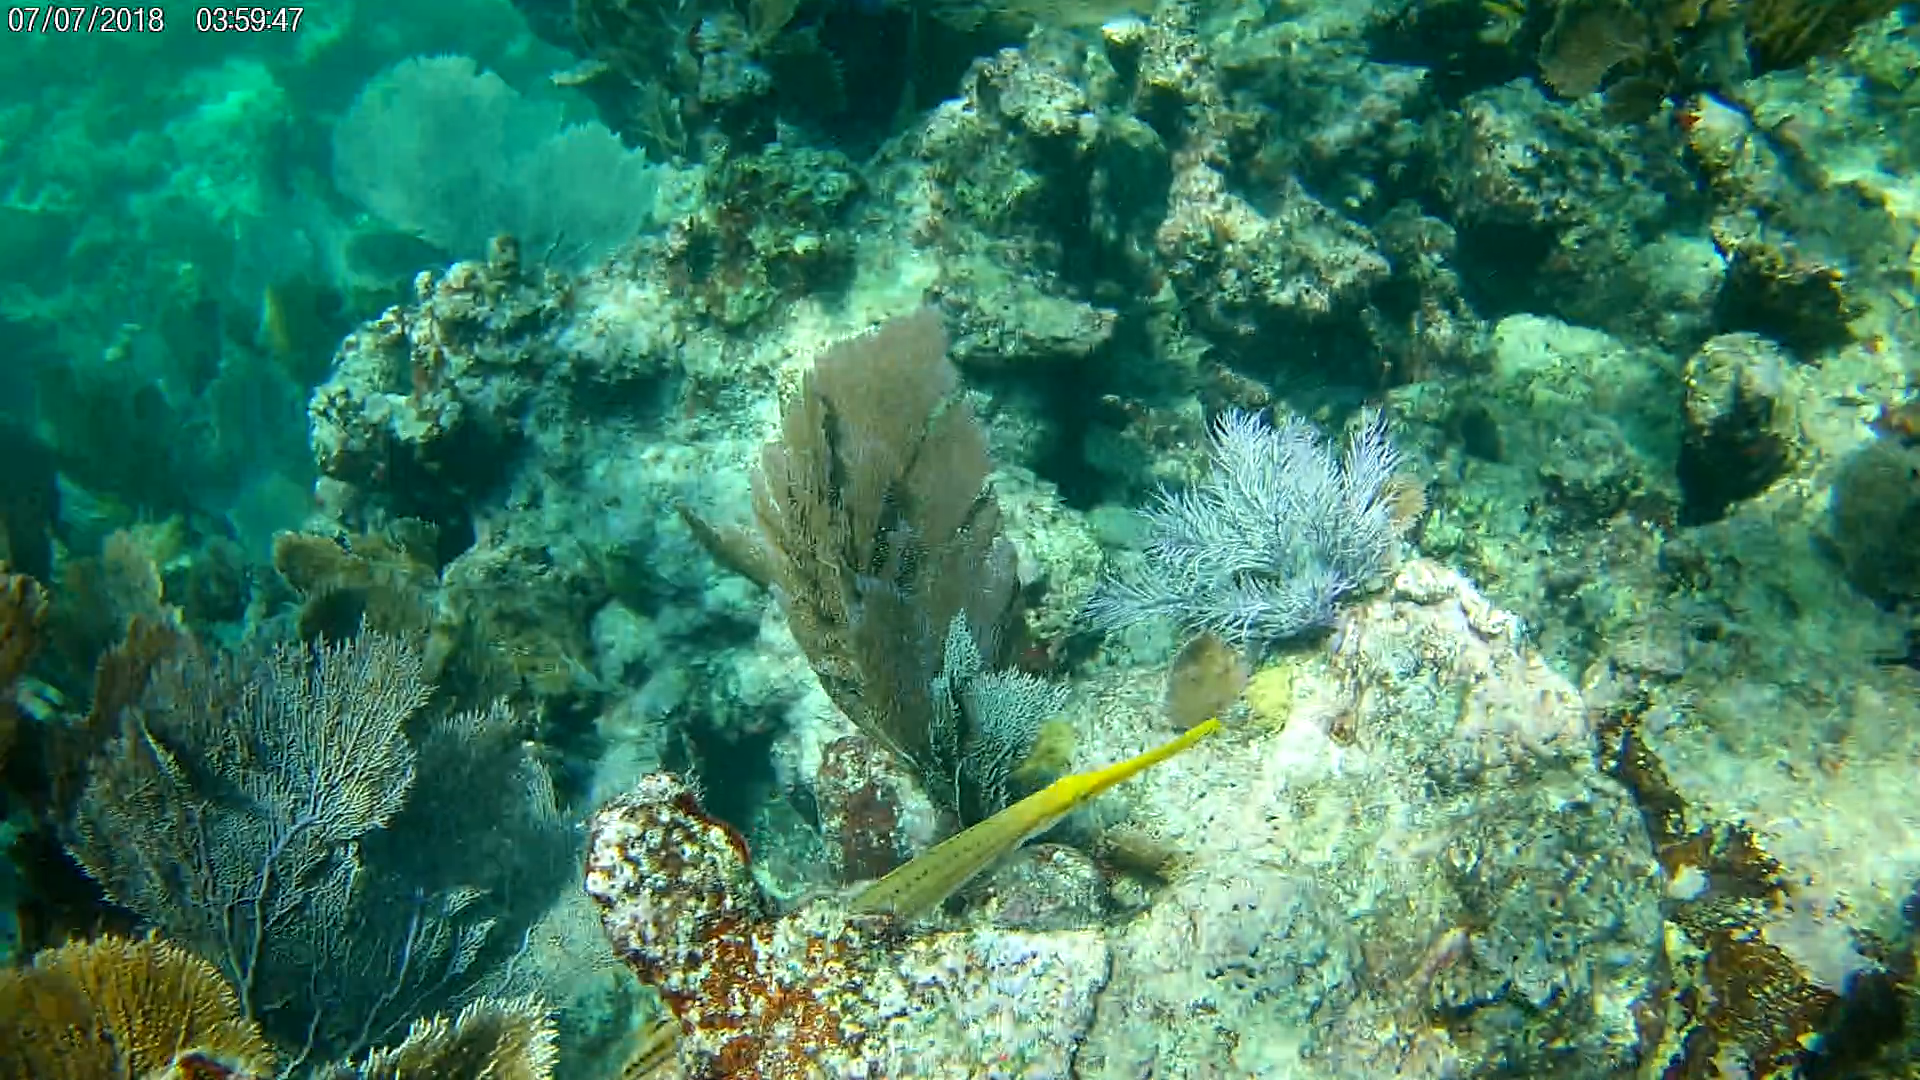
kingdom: Animalia
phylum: Chordata
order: Syngnathiformes
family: Aulostomidae
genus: Aulostomus
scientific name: Aulostomus maculatus
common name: West atlantic trumpetfish
